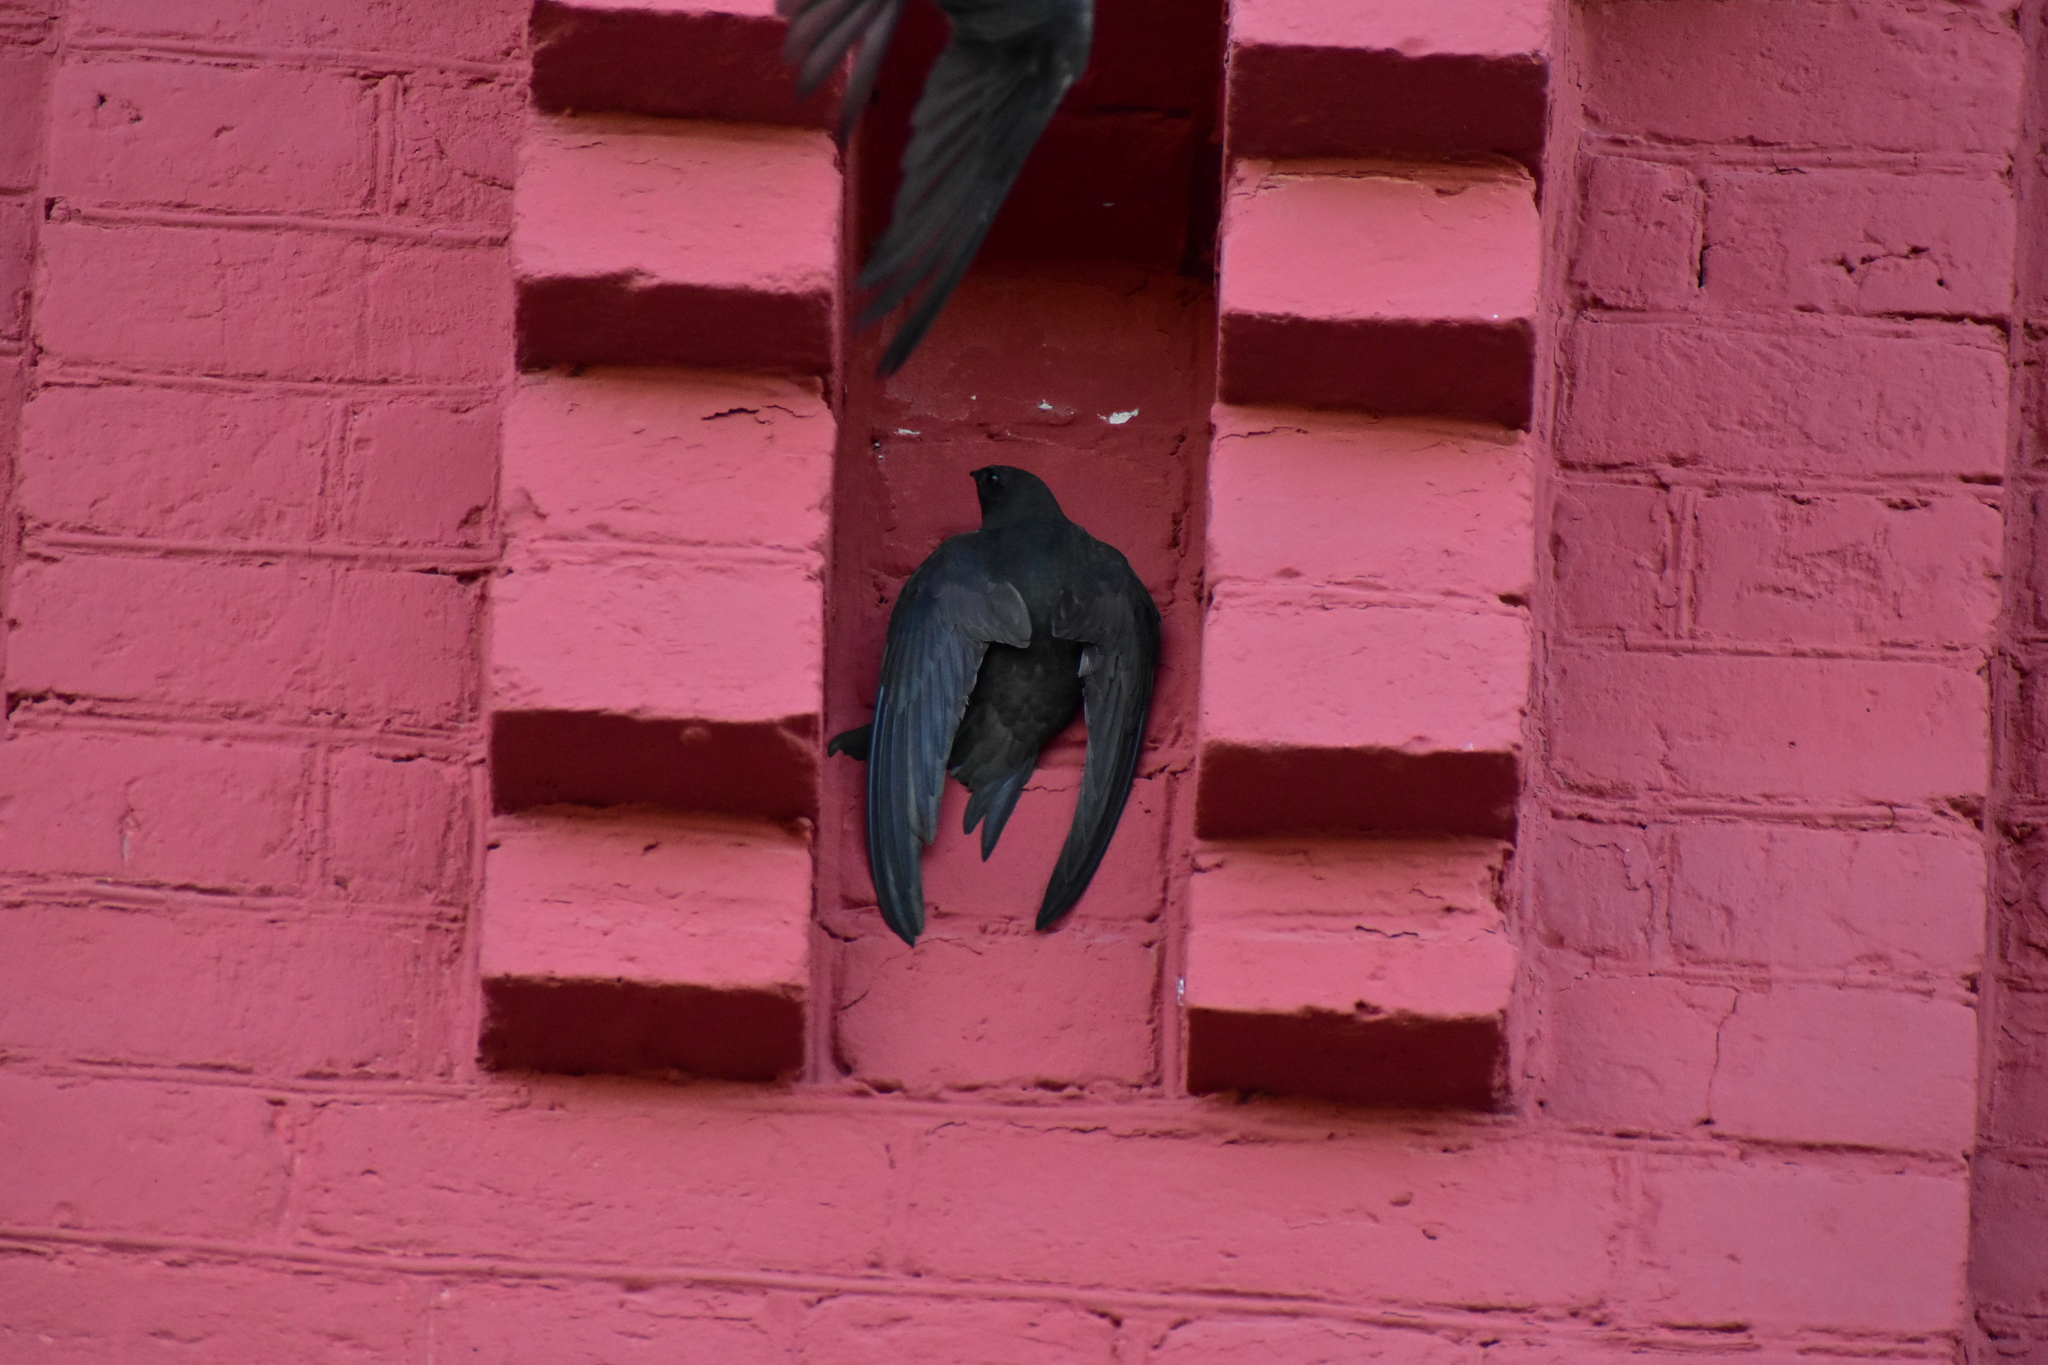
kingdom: Animalia
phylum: Chordata
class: Aves
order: Apodiformes
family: Apodidae
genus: Apus
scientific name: Apus apus
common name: Common swift
